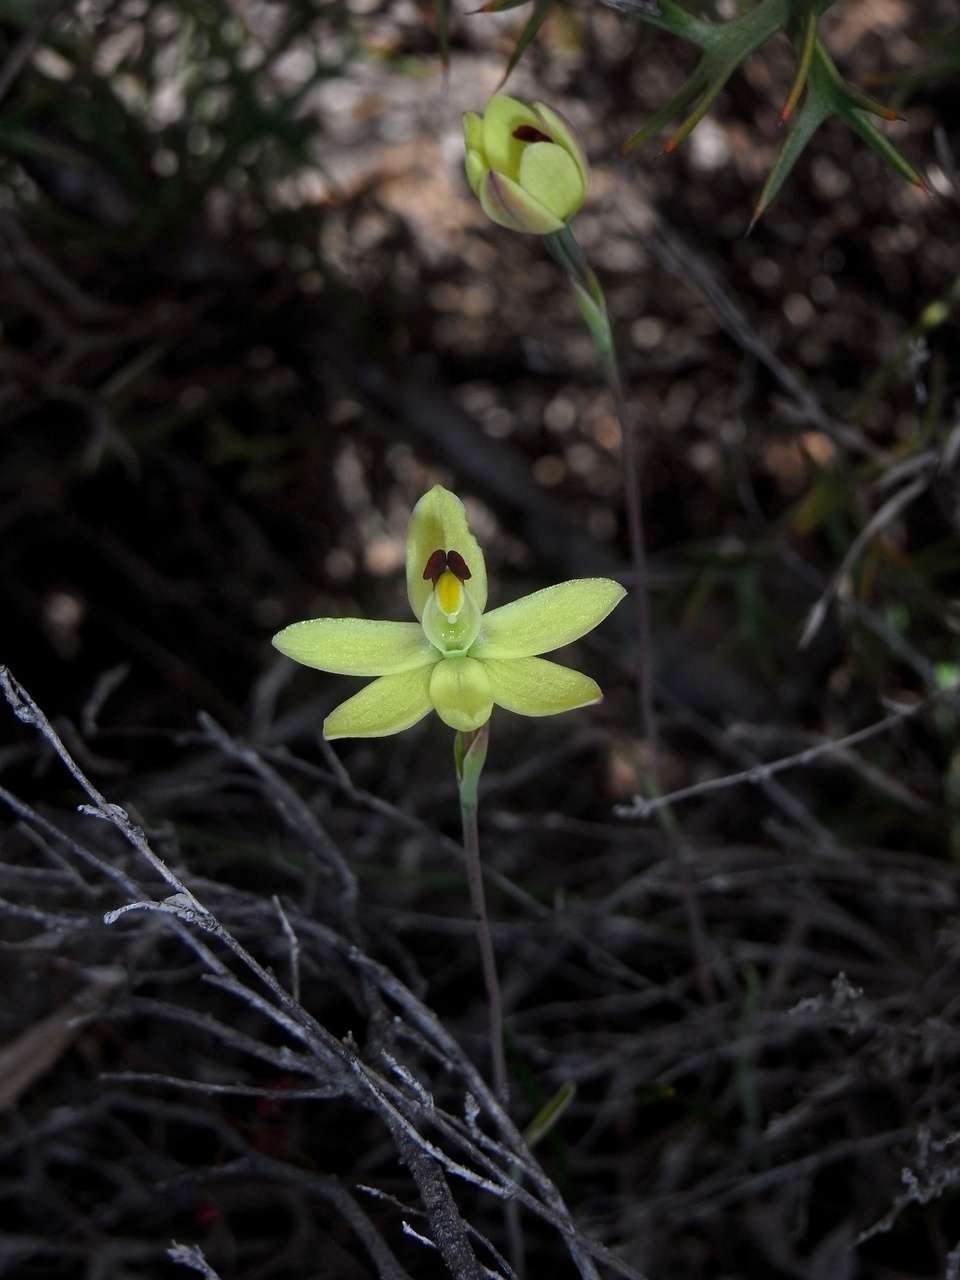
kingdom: Plantae
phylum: Tracheophyta
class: Liliopsida
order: Asparagales
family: Orchidaceae
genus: Thelymitra
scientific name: Thelymitra antennifera
